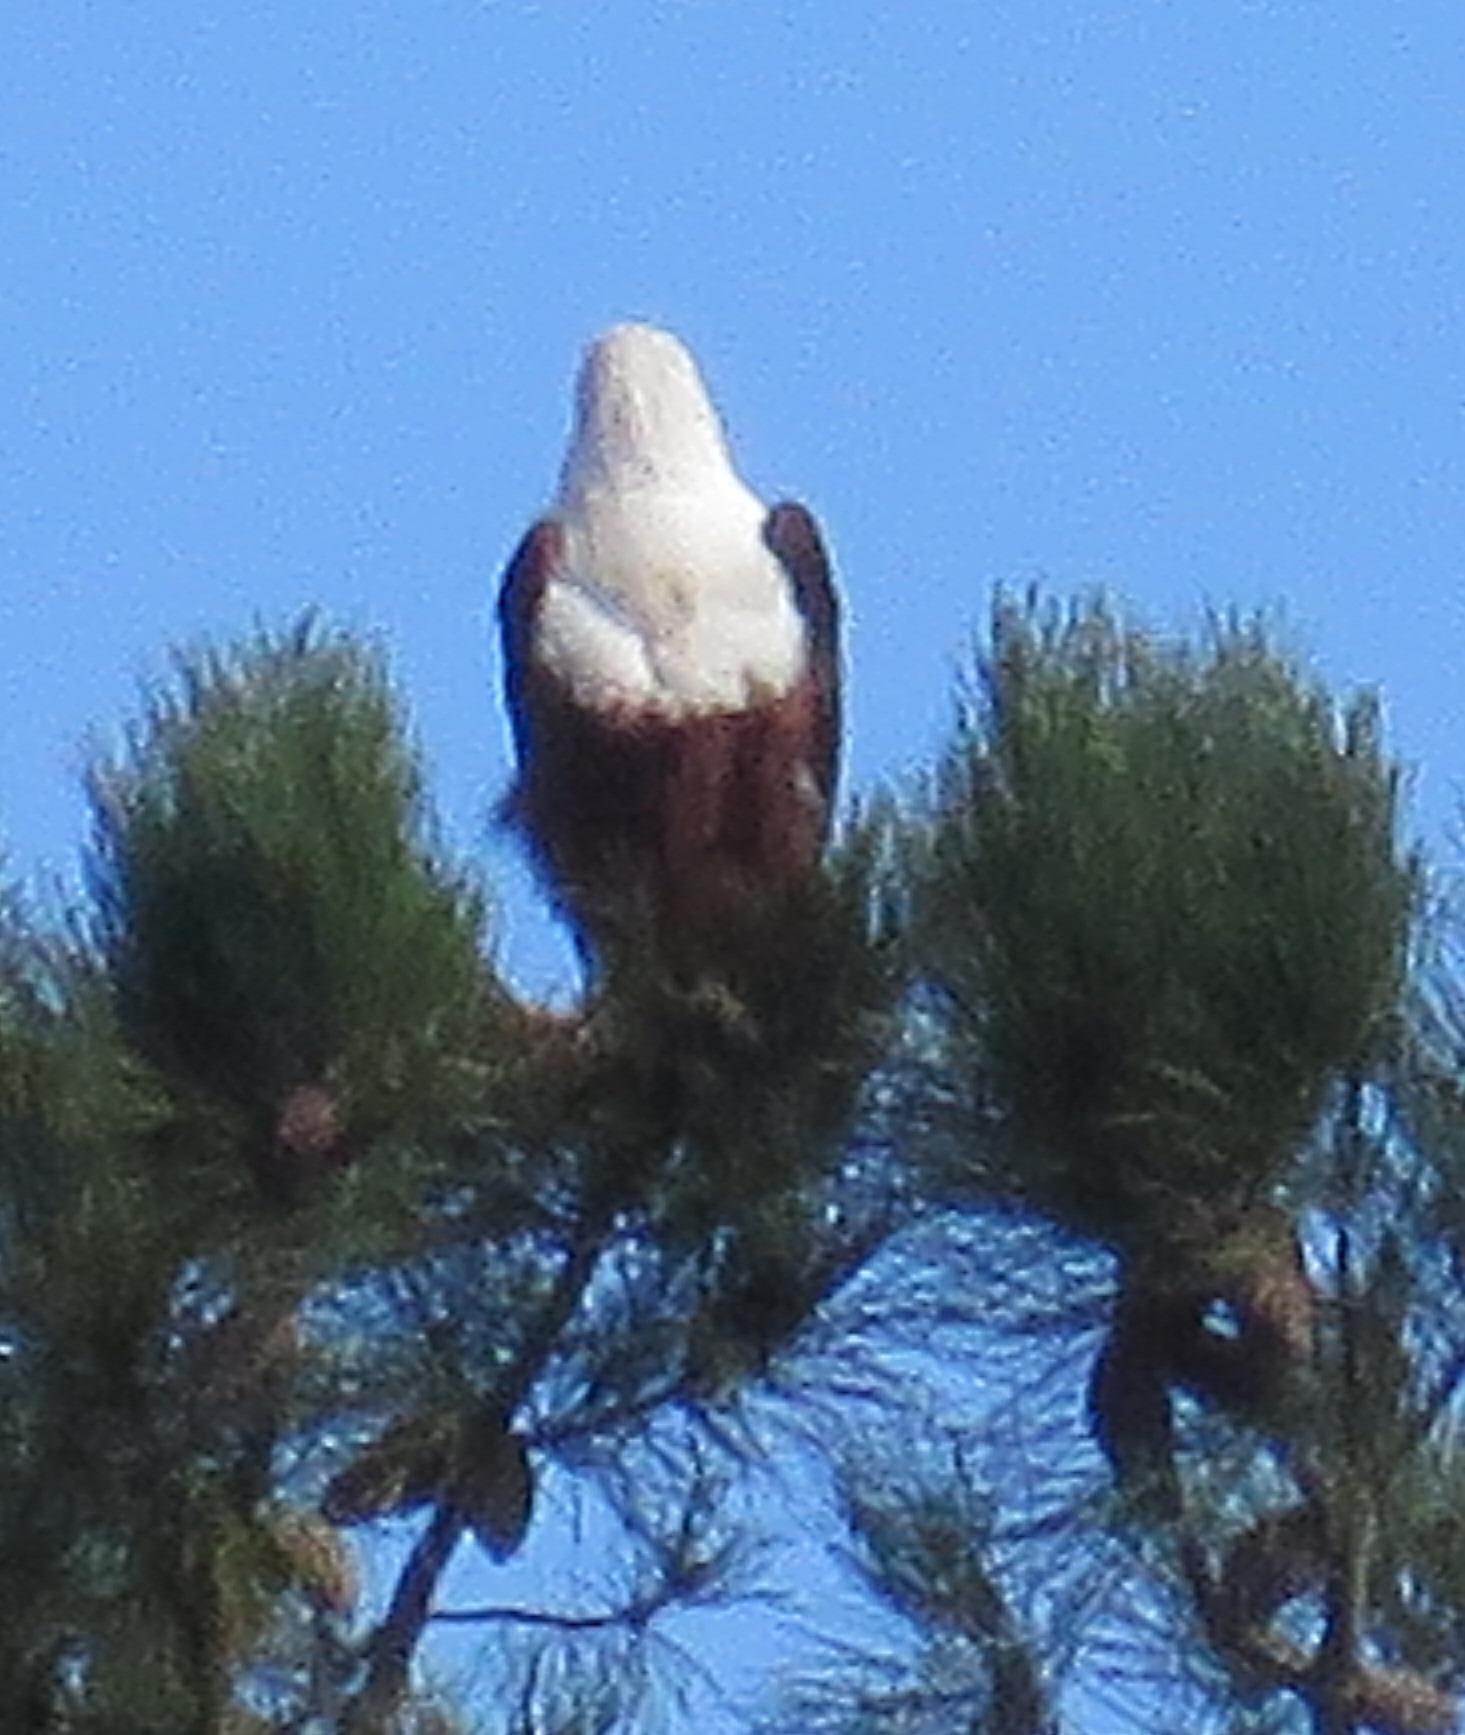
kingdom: Animalia
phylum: Chordata
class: Aves
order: Accipitriformes
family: Accipitridae
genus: Haliaeetus
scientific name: Haliaeetus vocifer
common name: African fish eagle
